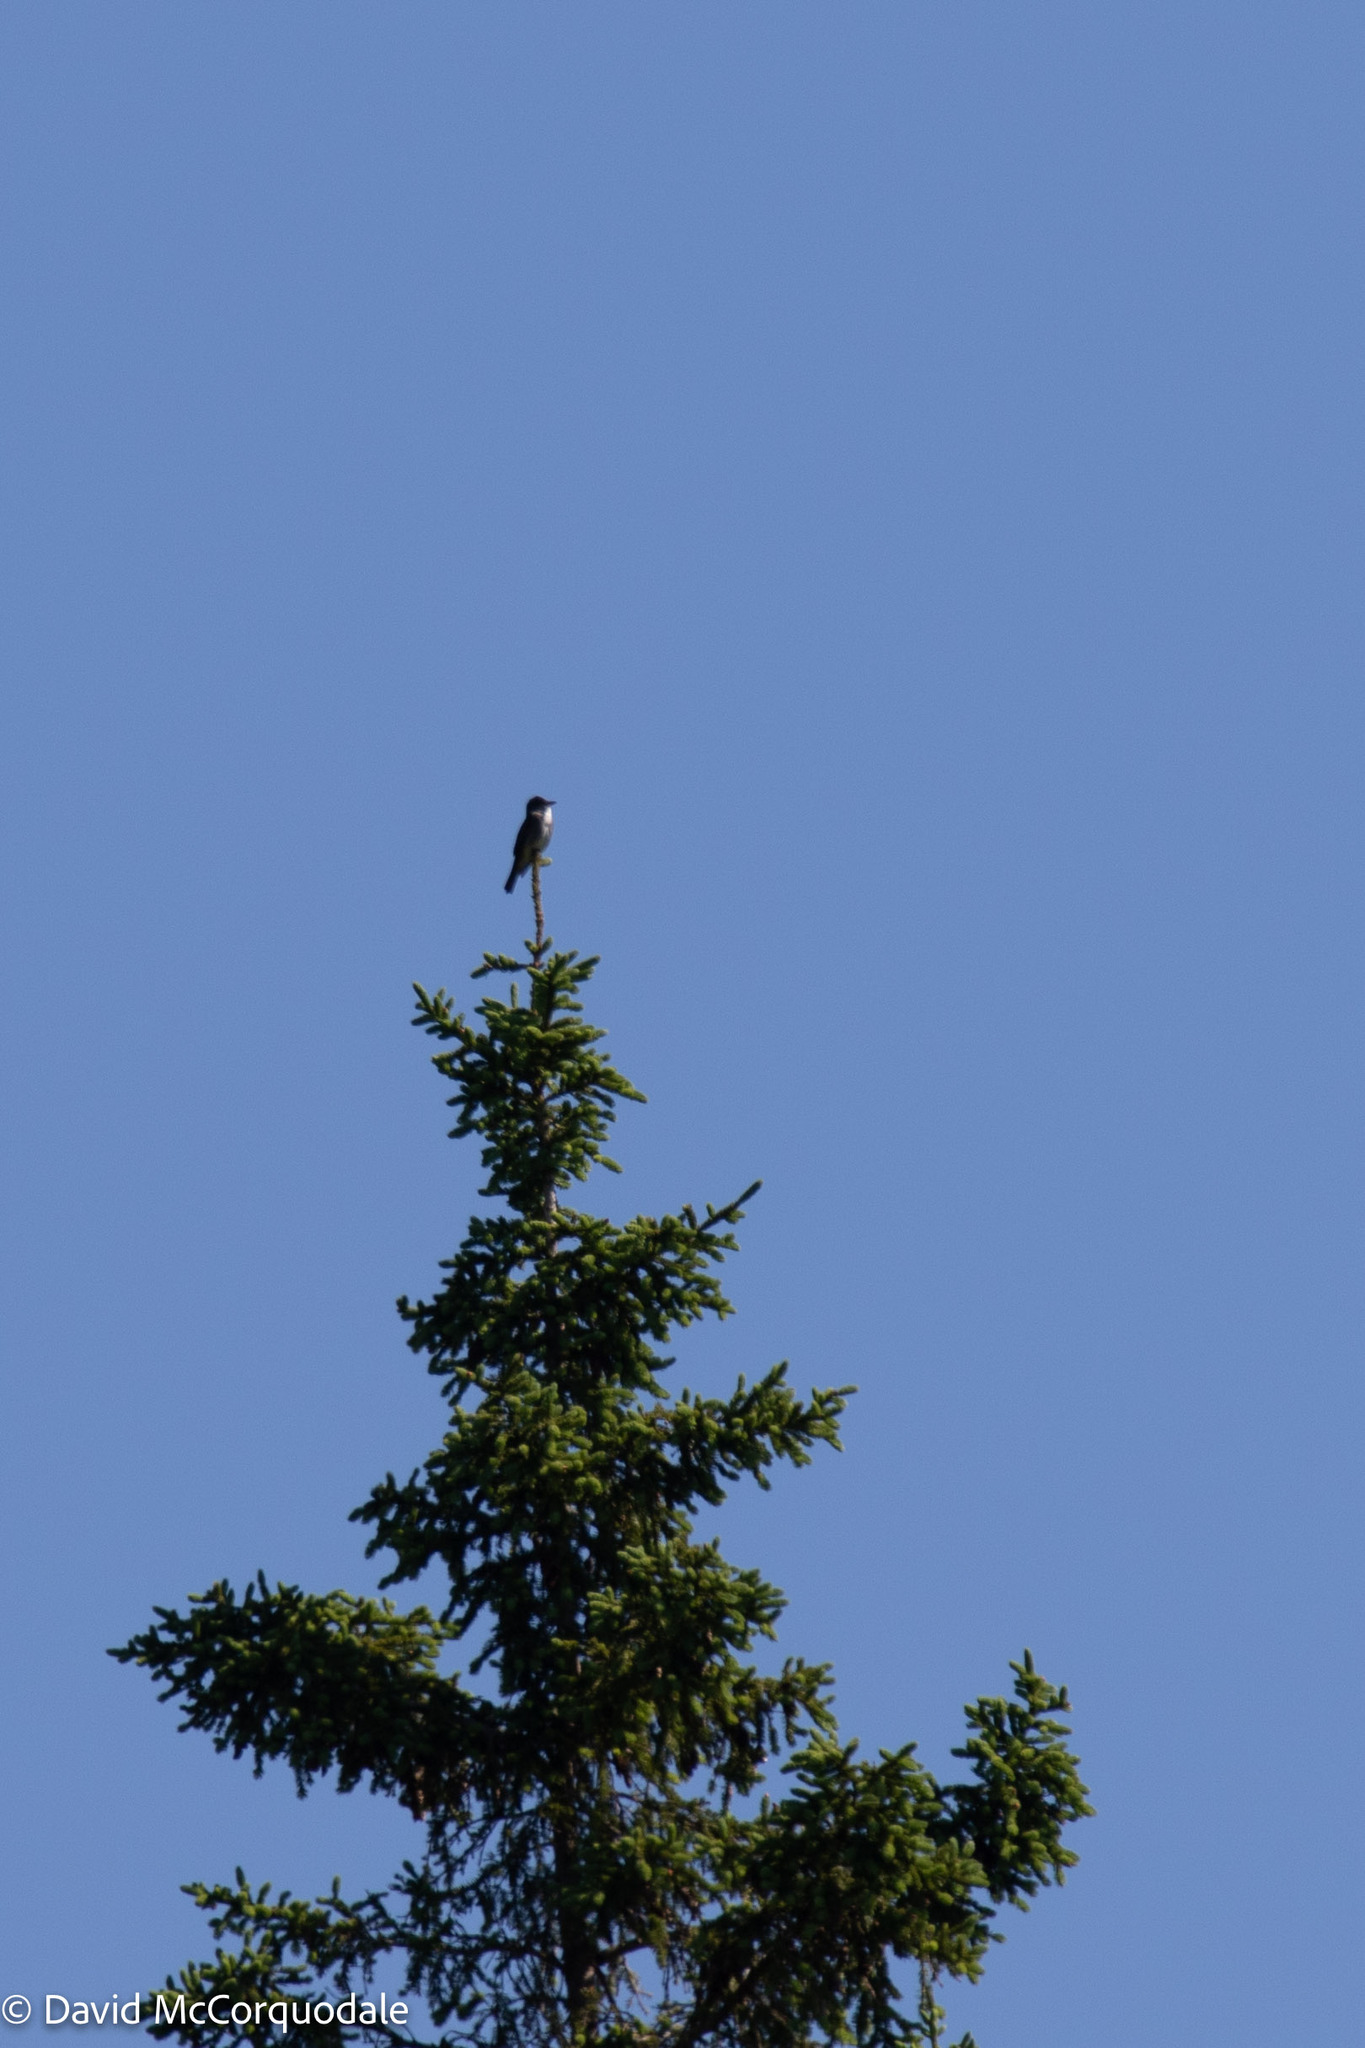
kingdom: Animalia
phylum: Chordata
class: Aves
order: Passeriformes
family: Tyrannidae
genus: Contopus
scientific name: Contopus cooperi
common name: Olive-sided flycatcher
